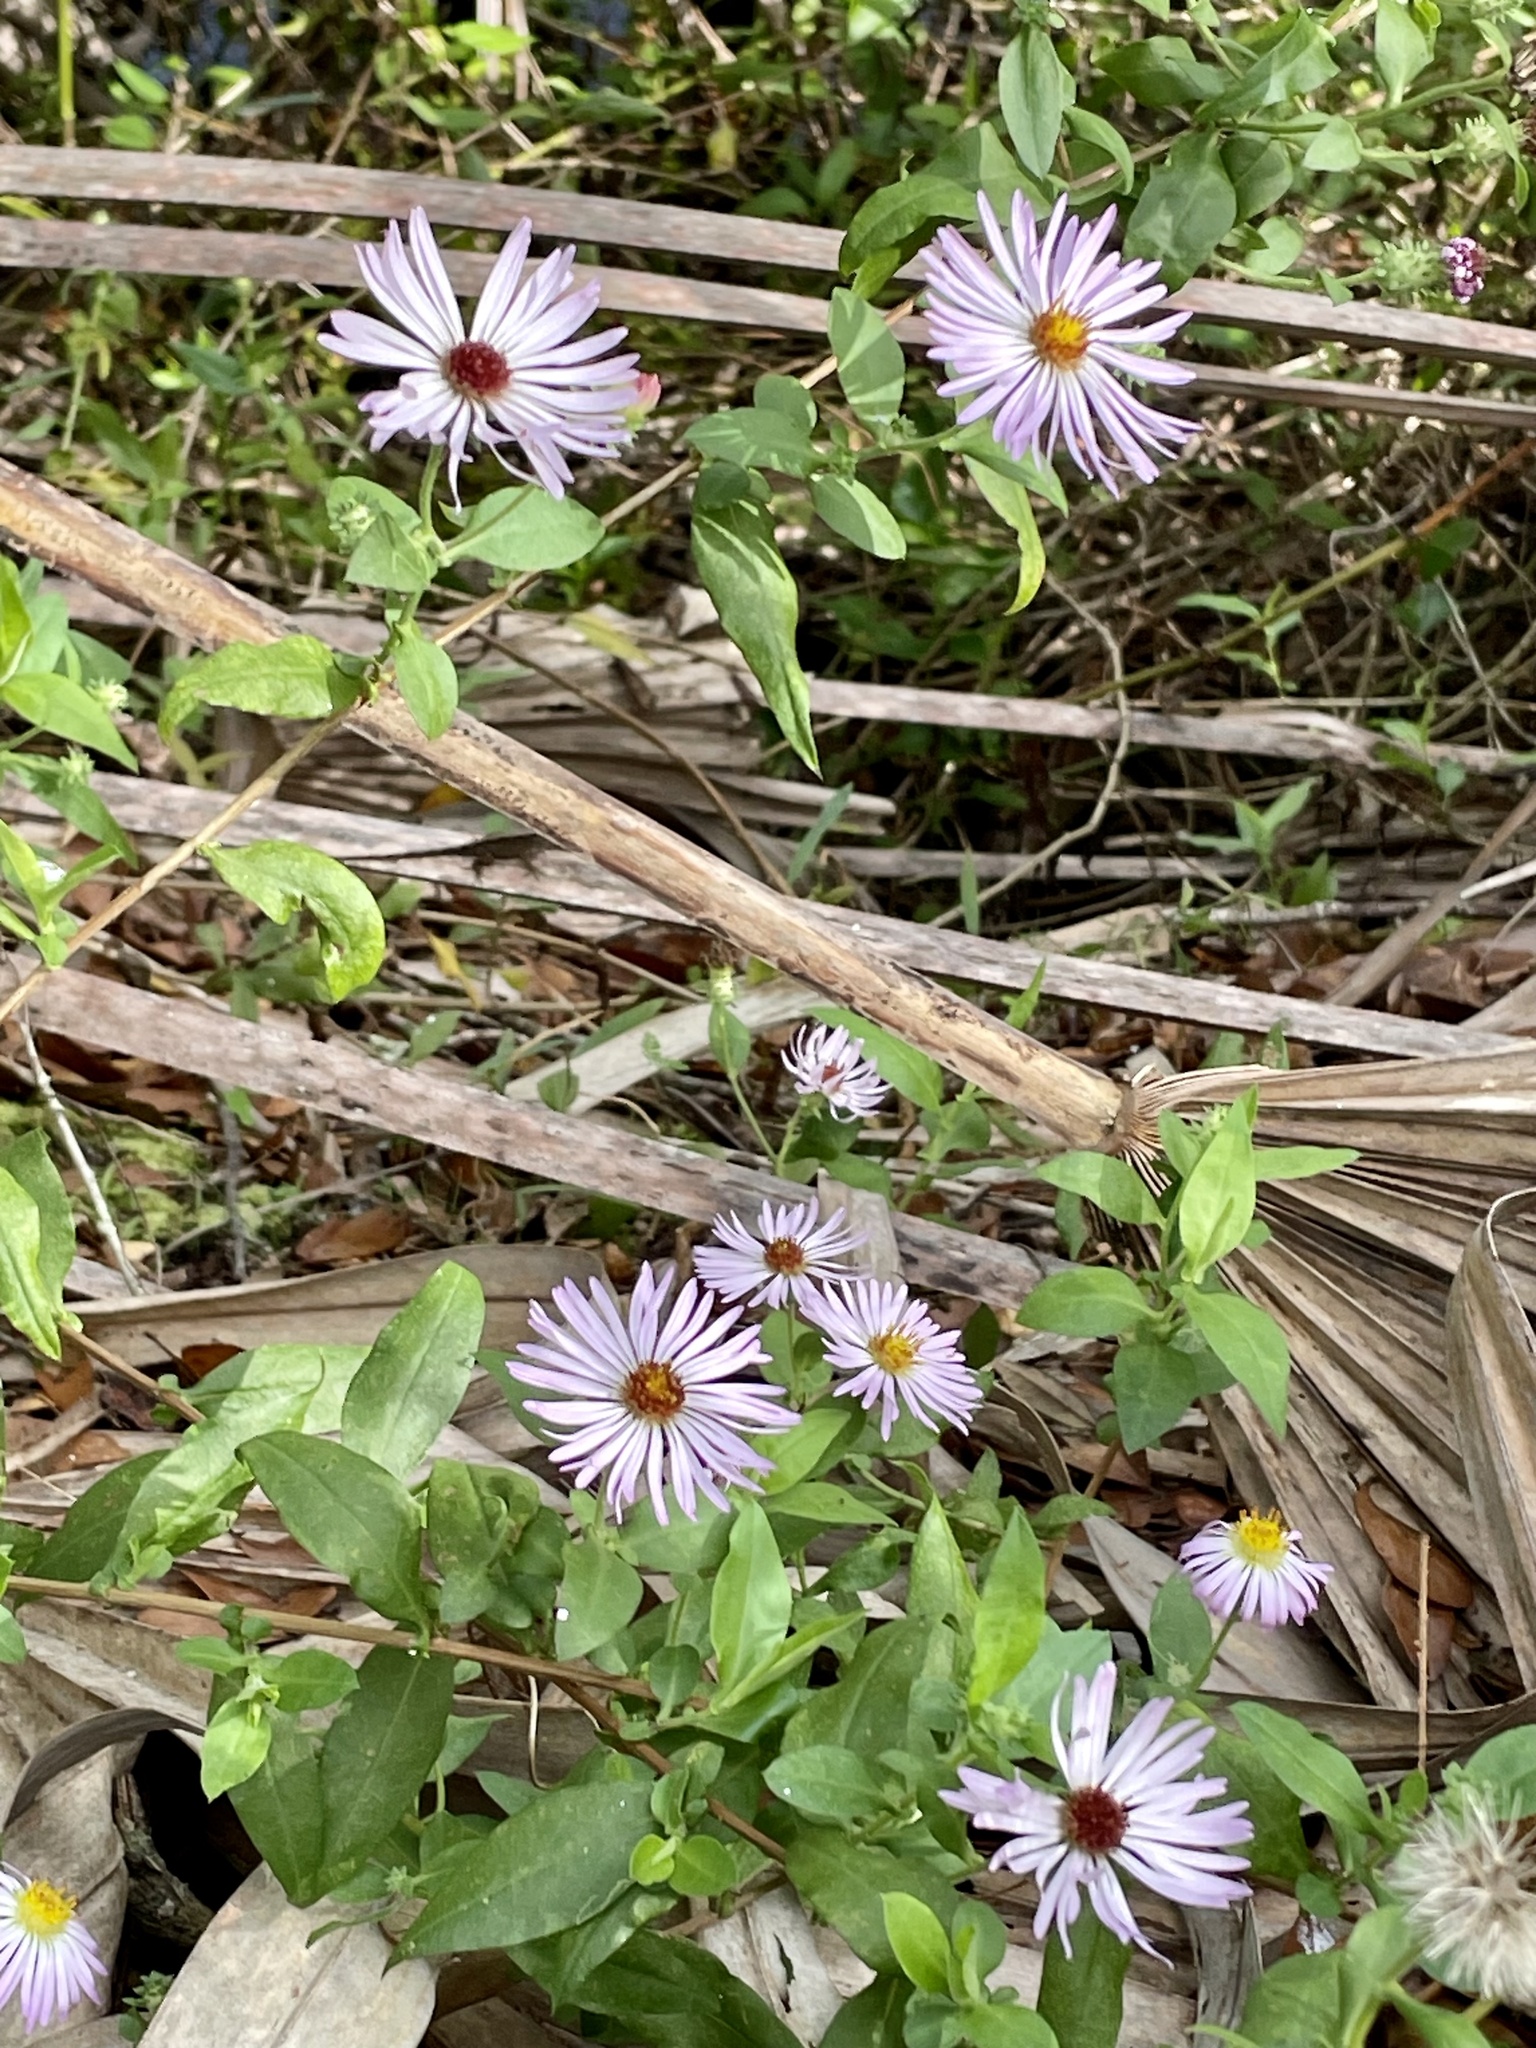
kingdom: Plantae
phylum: Tracheophyta
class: Magnoliopsida
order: Asterales
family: Asteraceae
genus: Ampelaster
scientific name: Ampelaster carolinianus
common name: Climbing aster
